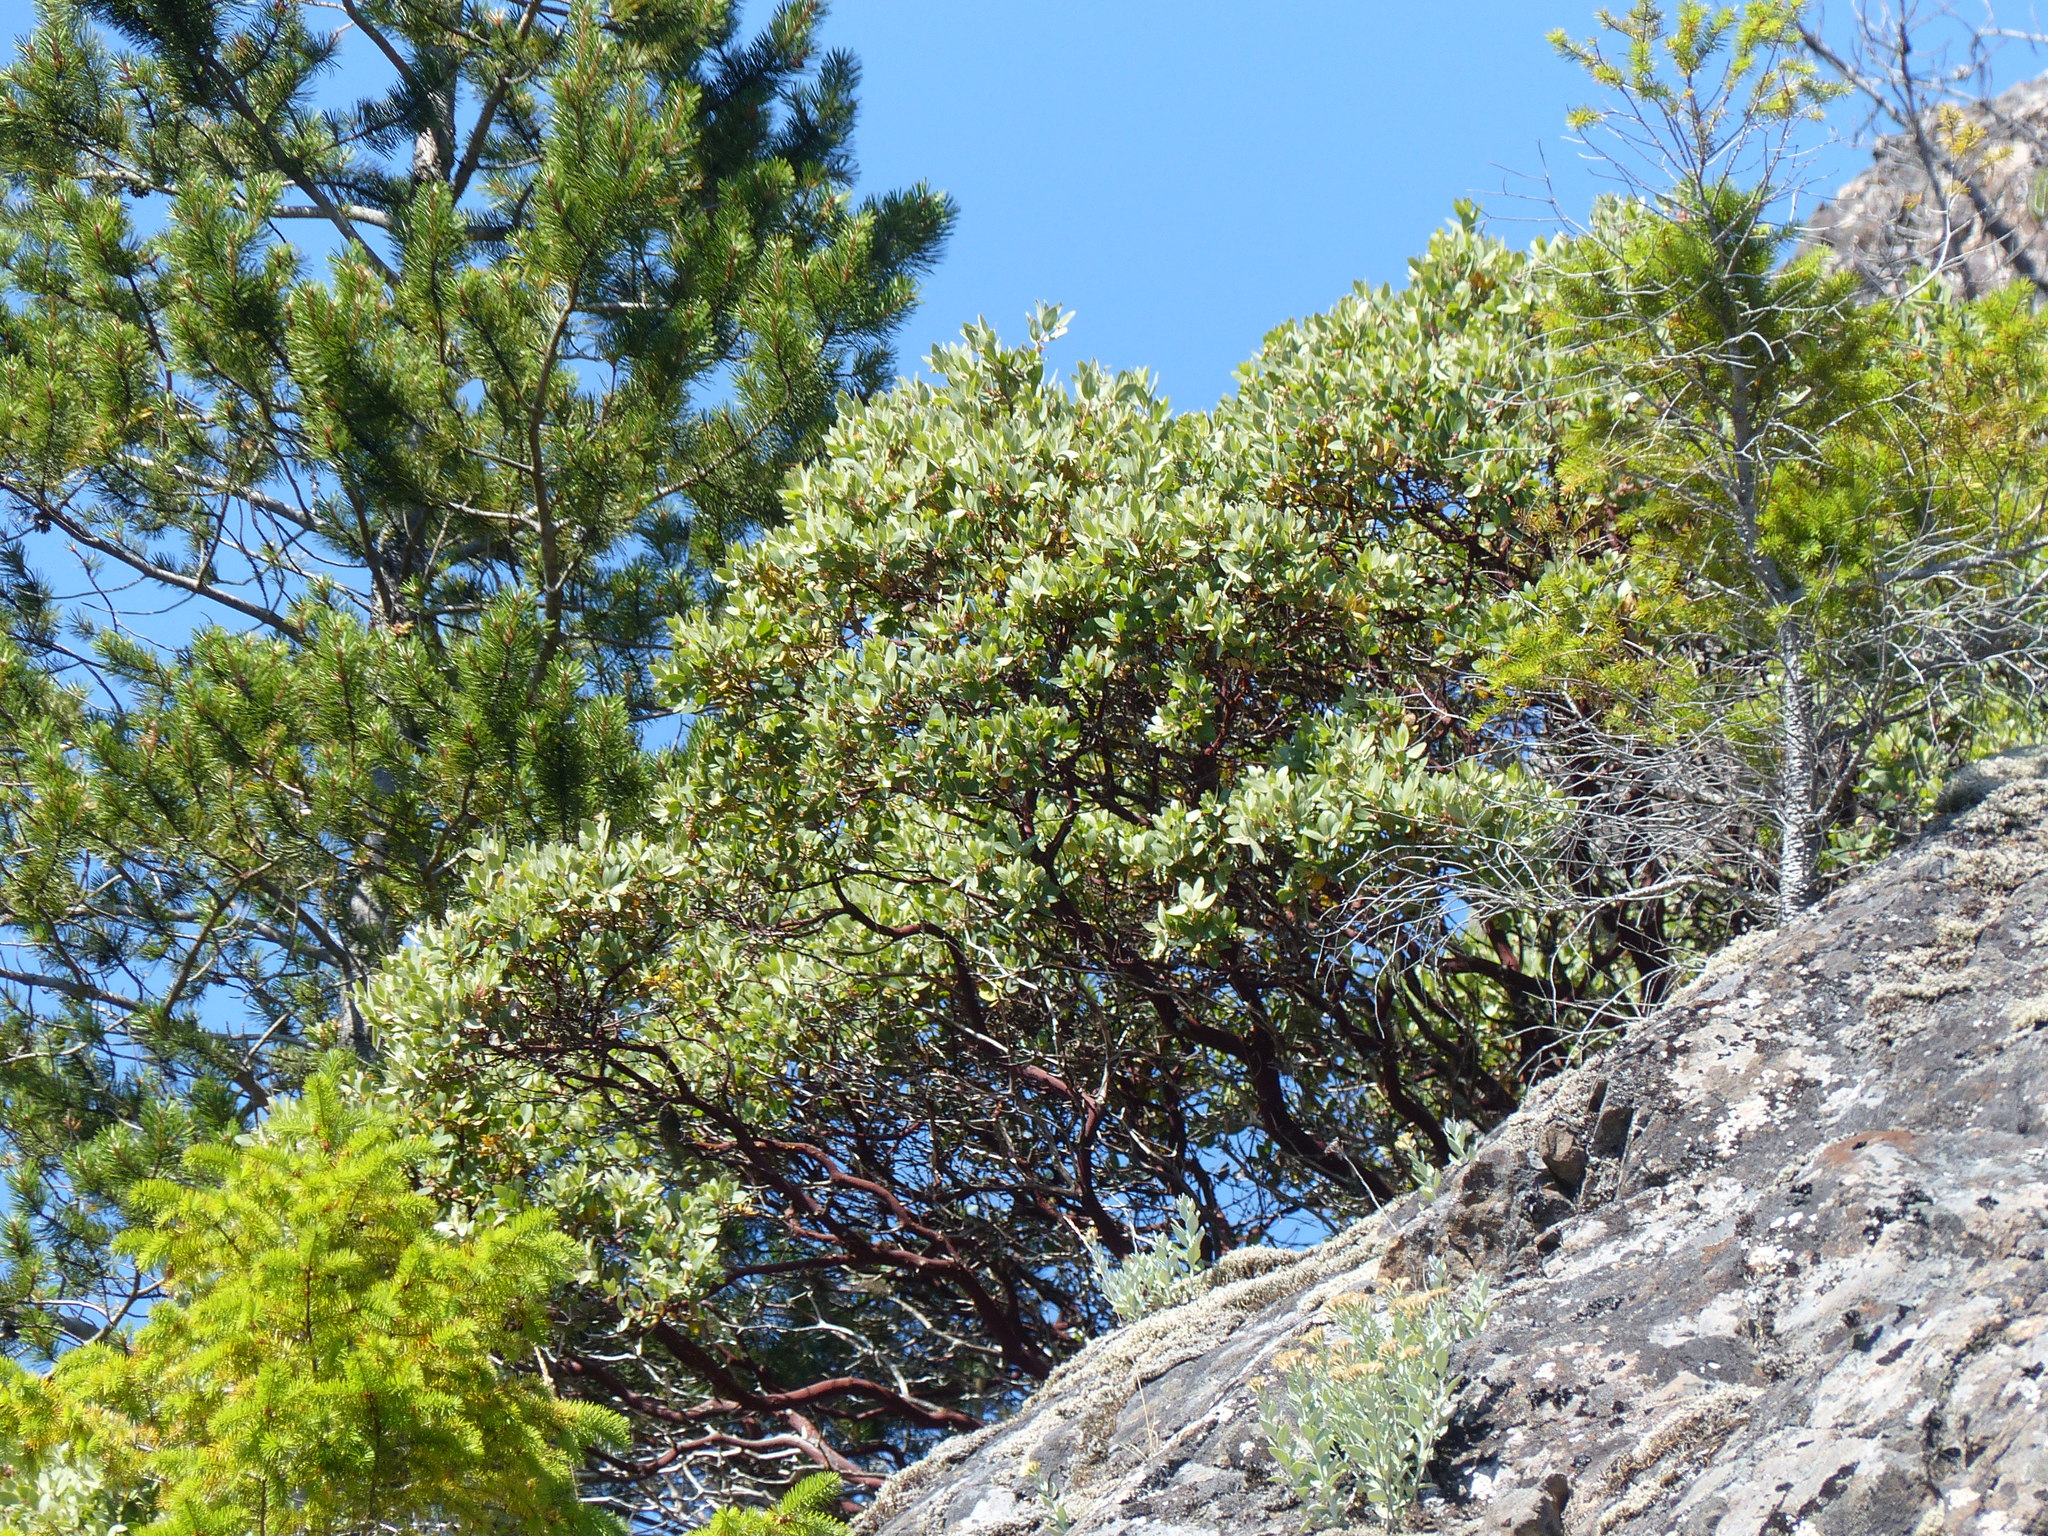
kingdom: Plantae
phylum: Tracheophyta
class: Magnoliopsida
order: Ericales
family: Ericaceae
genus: Arctostaphylos
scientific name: Arctostaphylos columbiana
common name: Bristly bearberry
